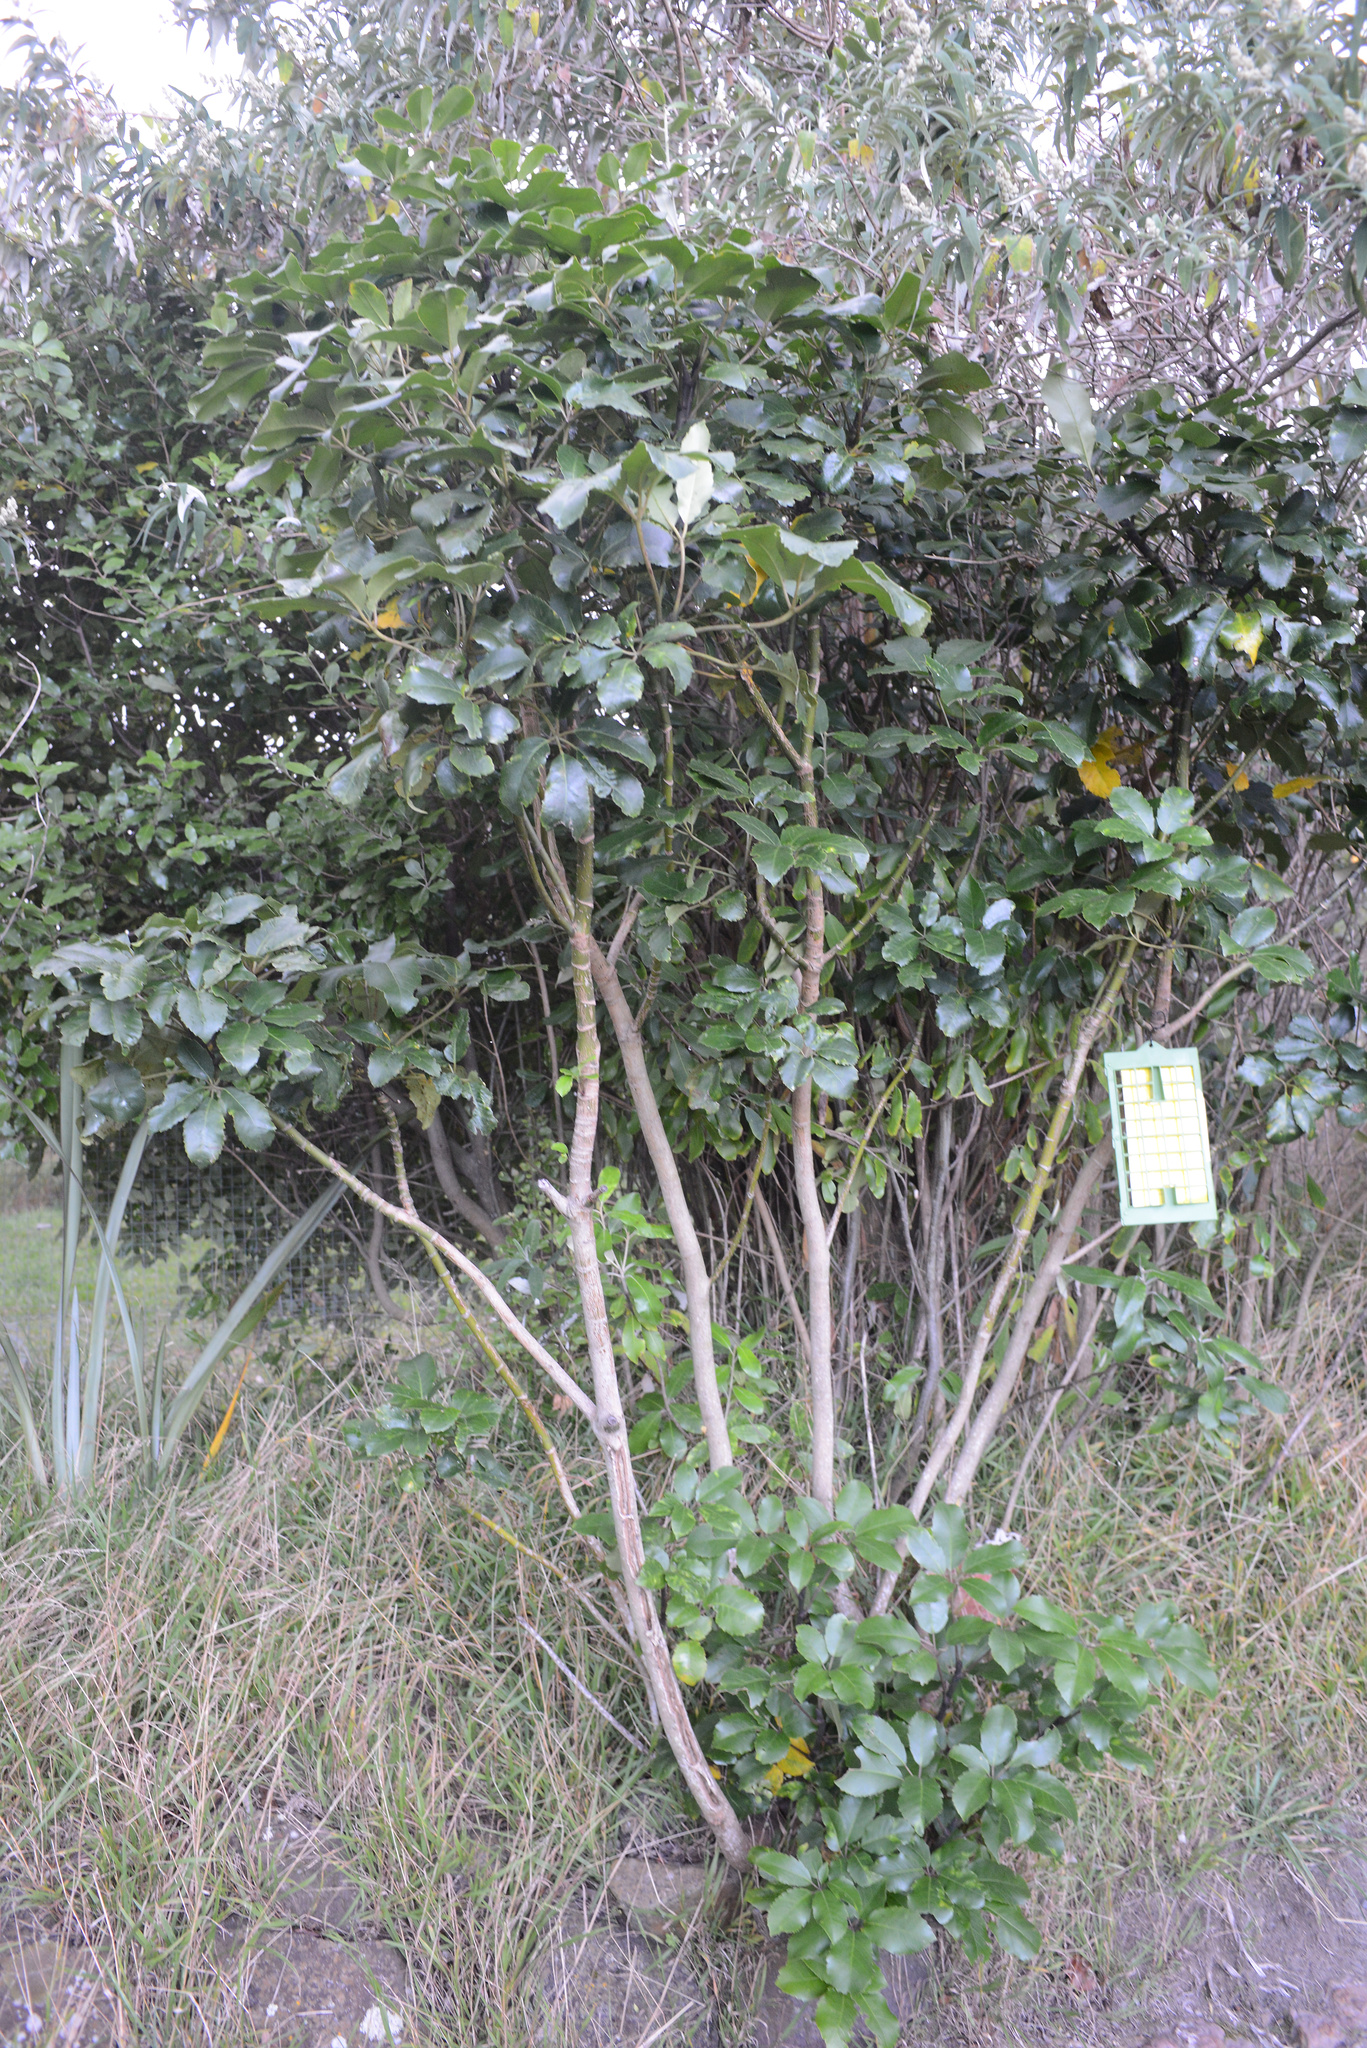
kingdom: Plantae
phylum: Tracheophyta
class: Magnoliopsida
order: Apiales
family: Araliaceae
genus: Neopanax
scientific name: Neopanax arboreus
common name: Five-fingers
